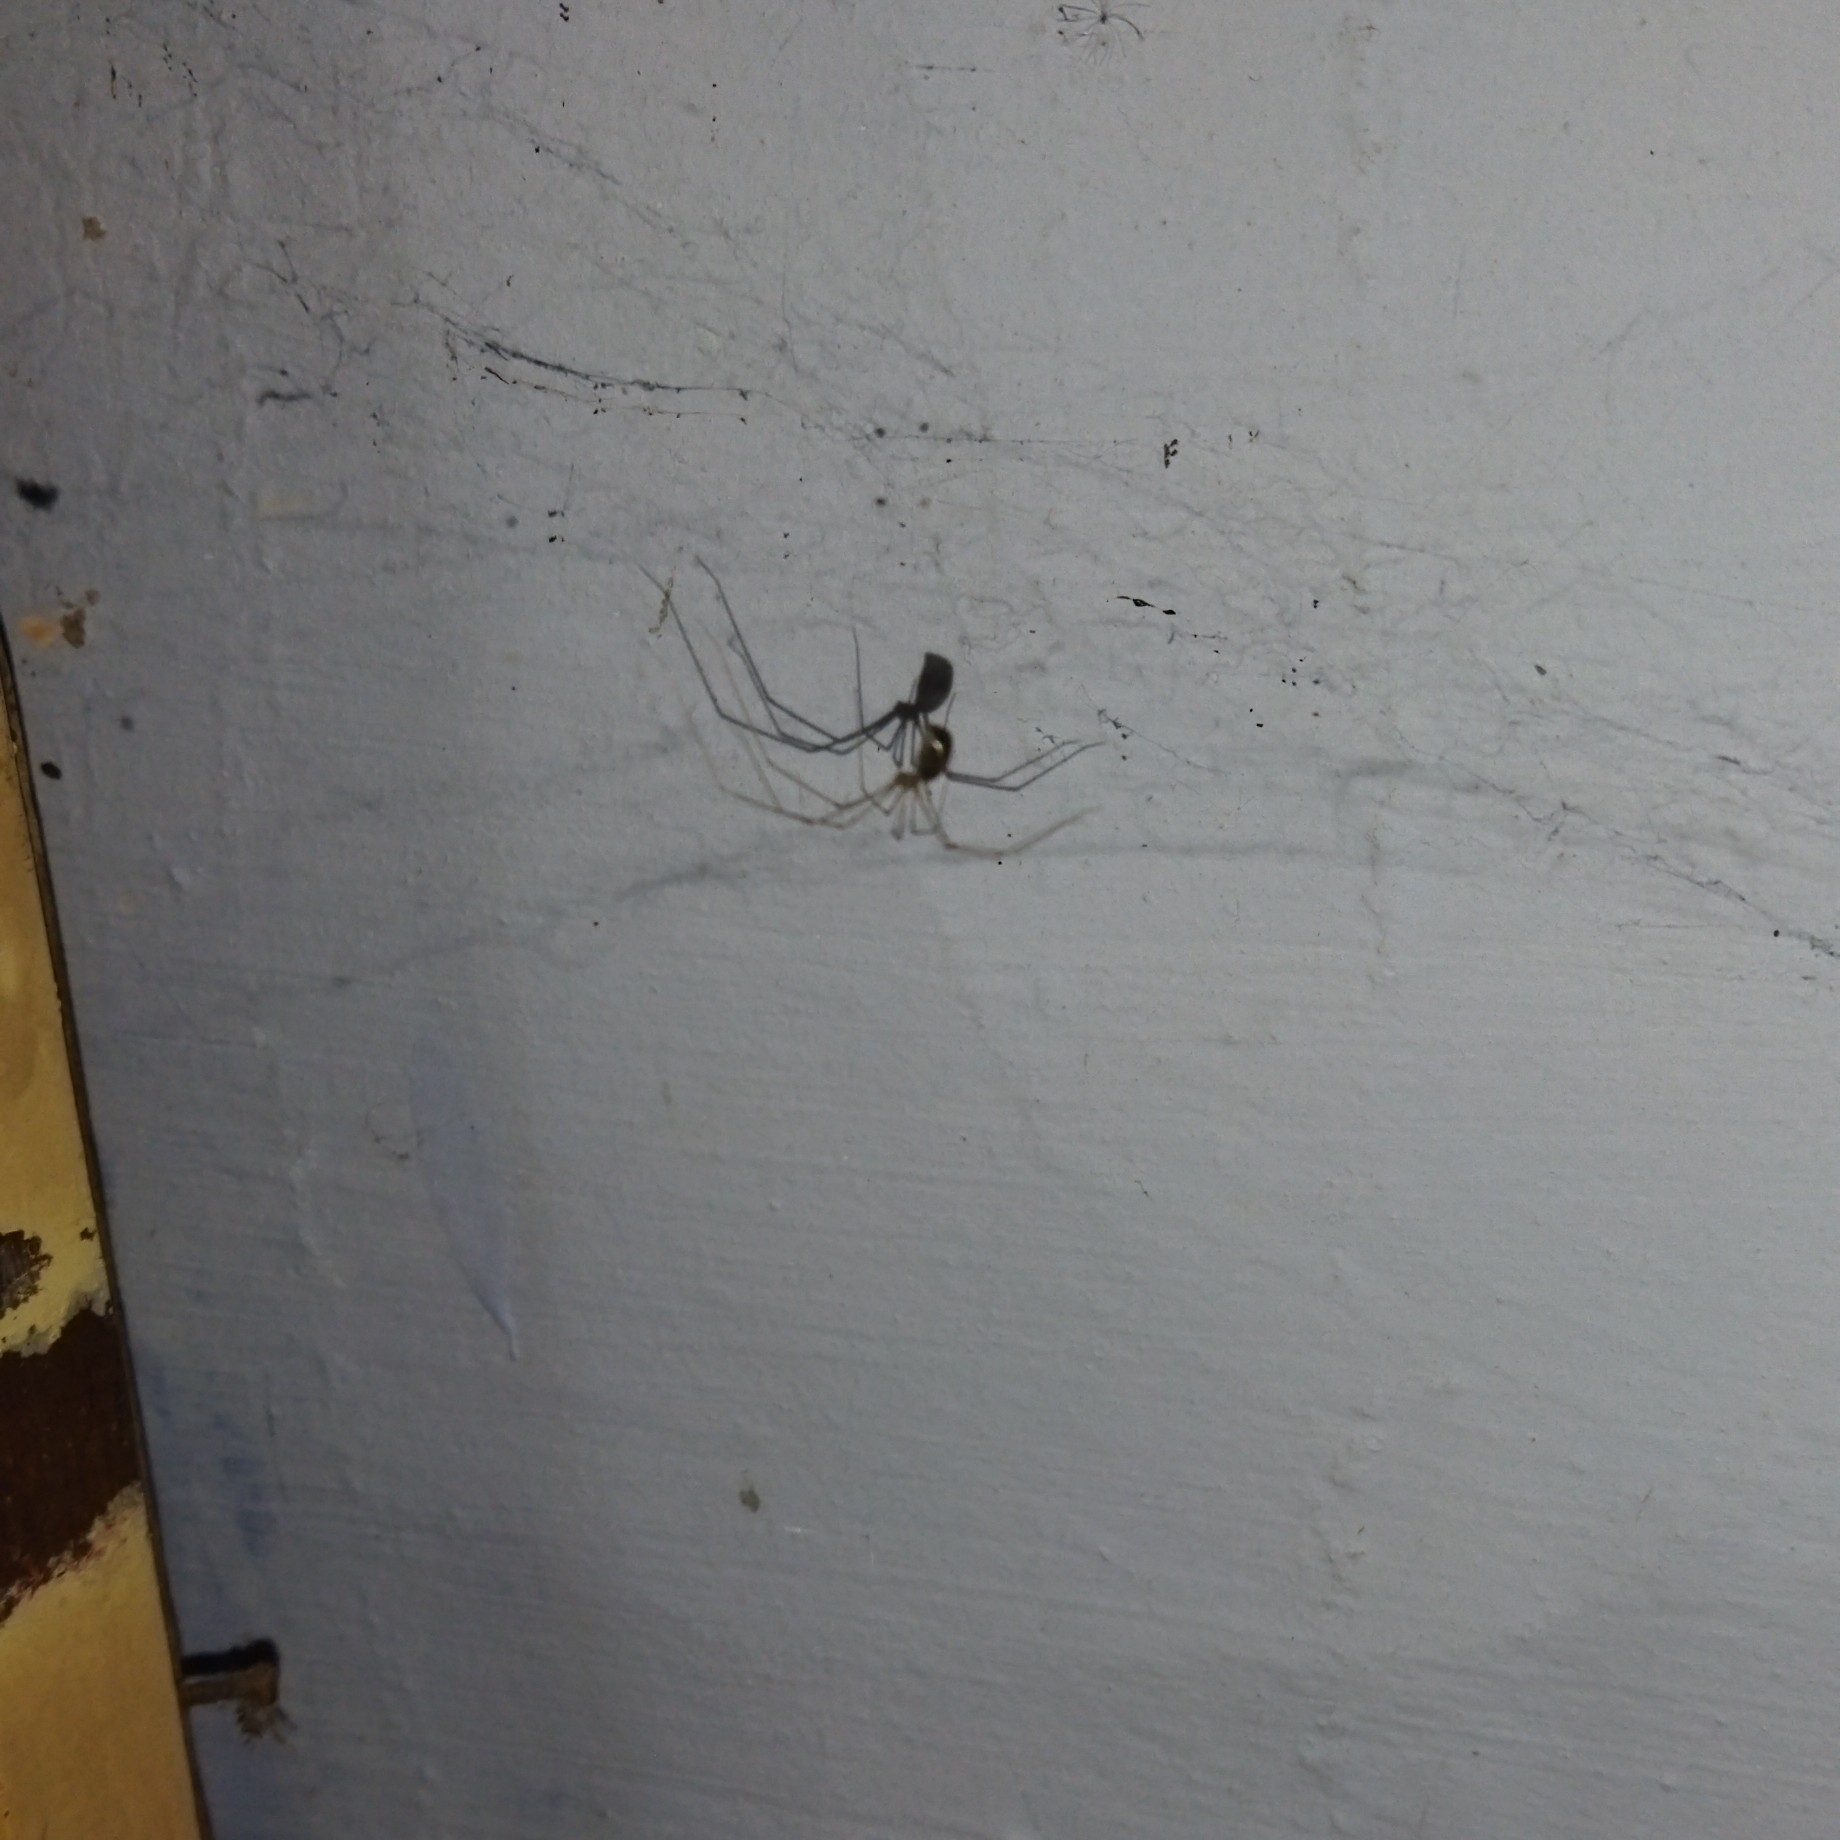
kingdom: Animalia
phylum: Arthropoda
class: Arachnida
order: Araneae
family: Pholcidae
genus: Pholcus
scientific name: Pholcus phalangioides
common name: Longbodied cellar spider
